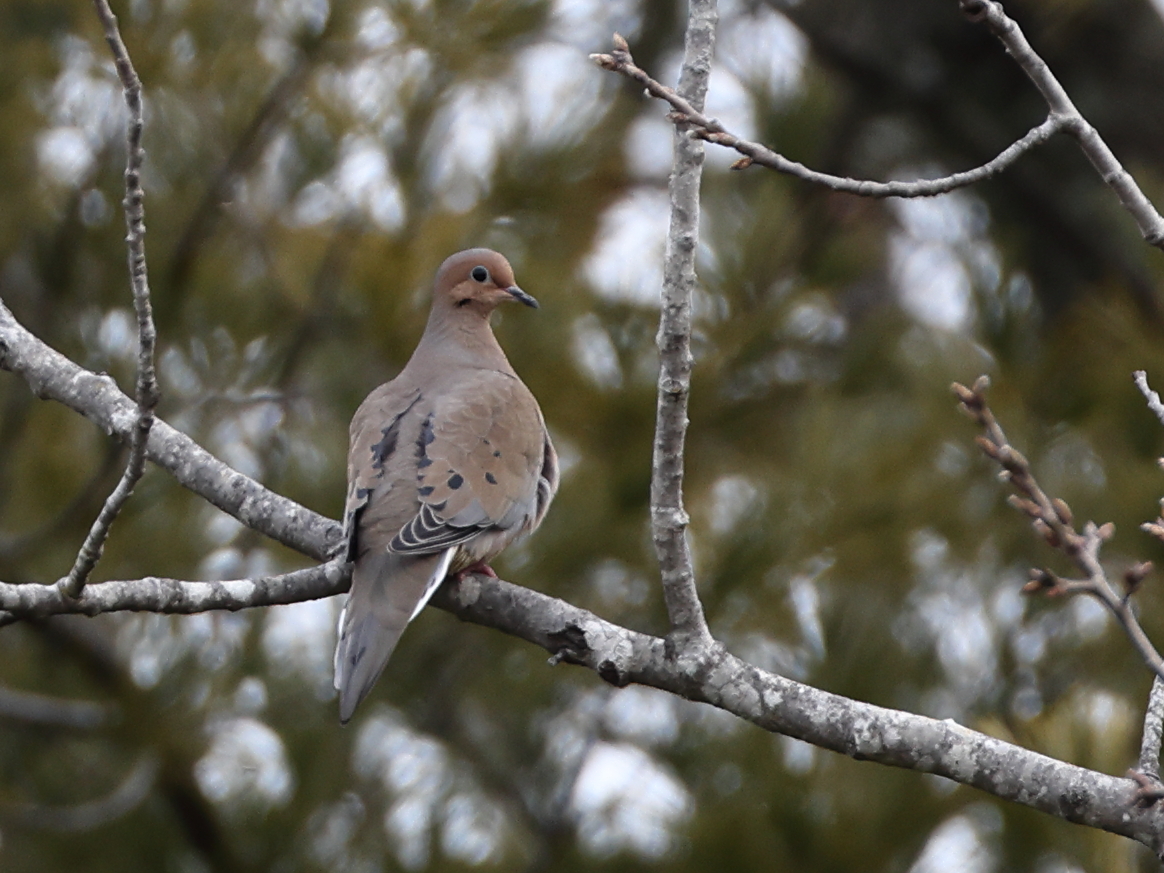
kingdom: Animalia
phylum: Chordata
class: Aves
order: Columbiformes
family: Columbidae
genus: Zenaida
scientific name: Zenaida macroura
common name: Mourning dove
